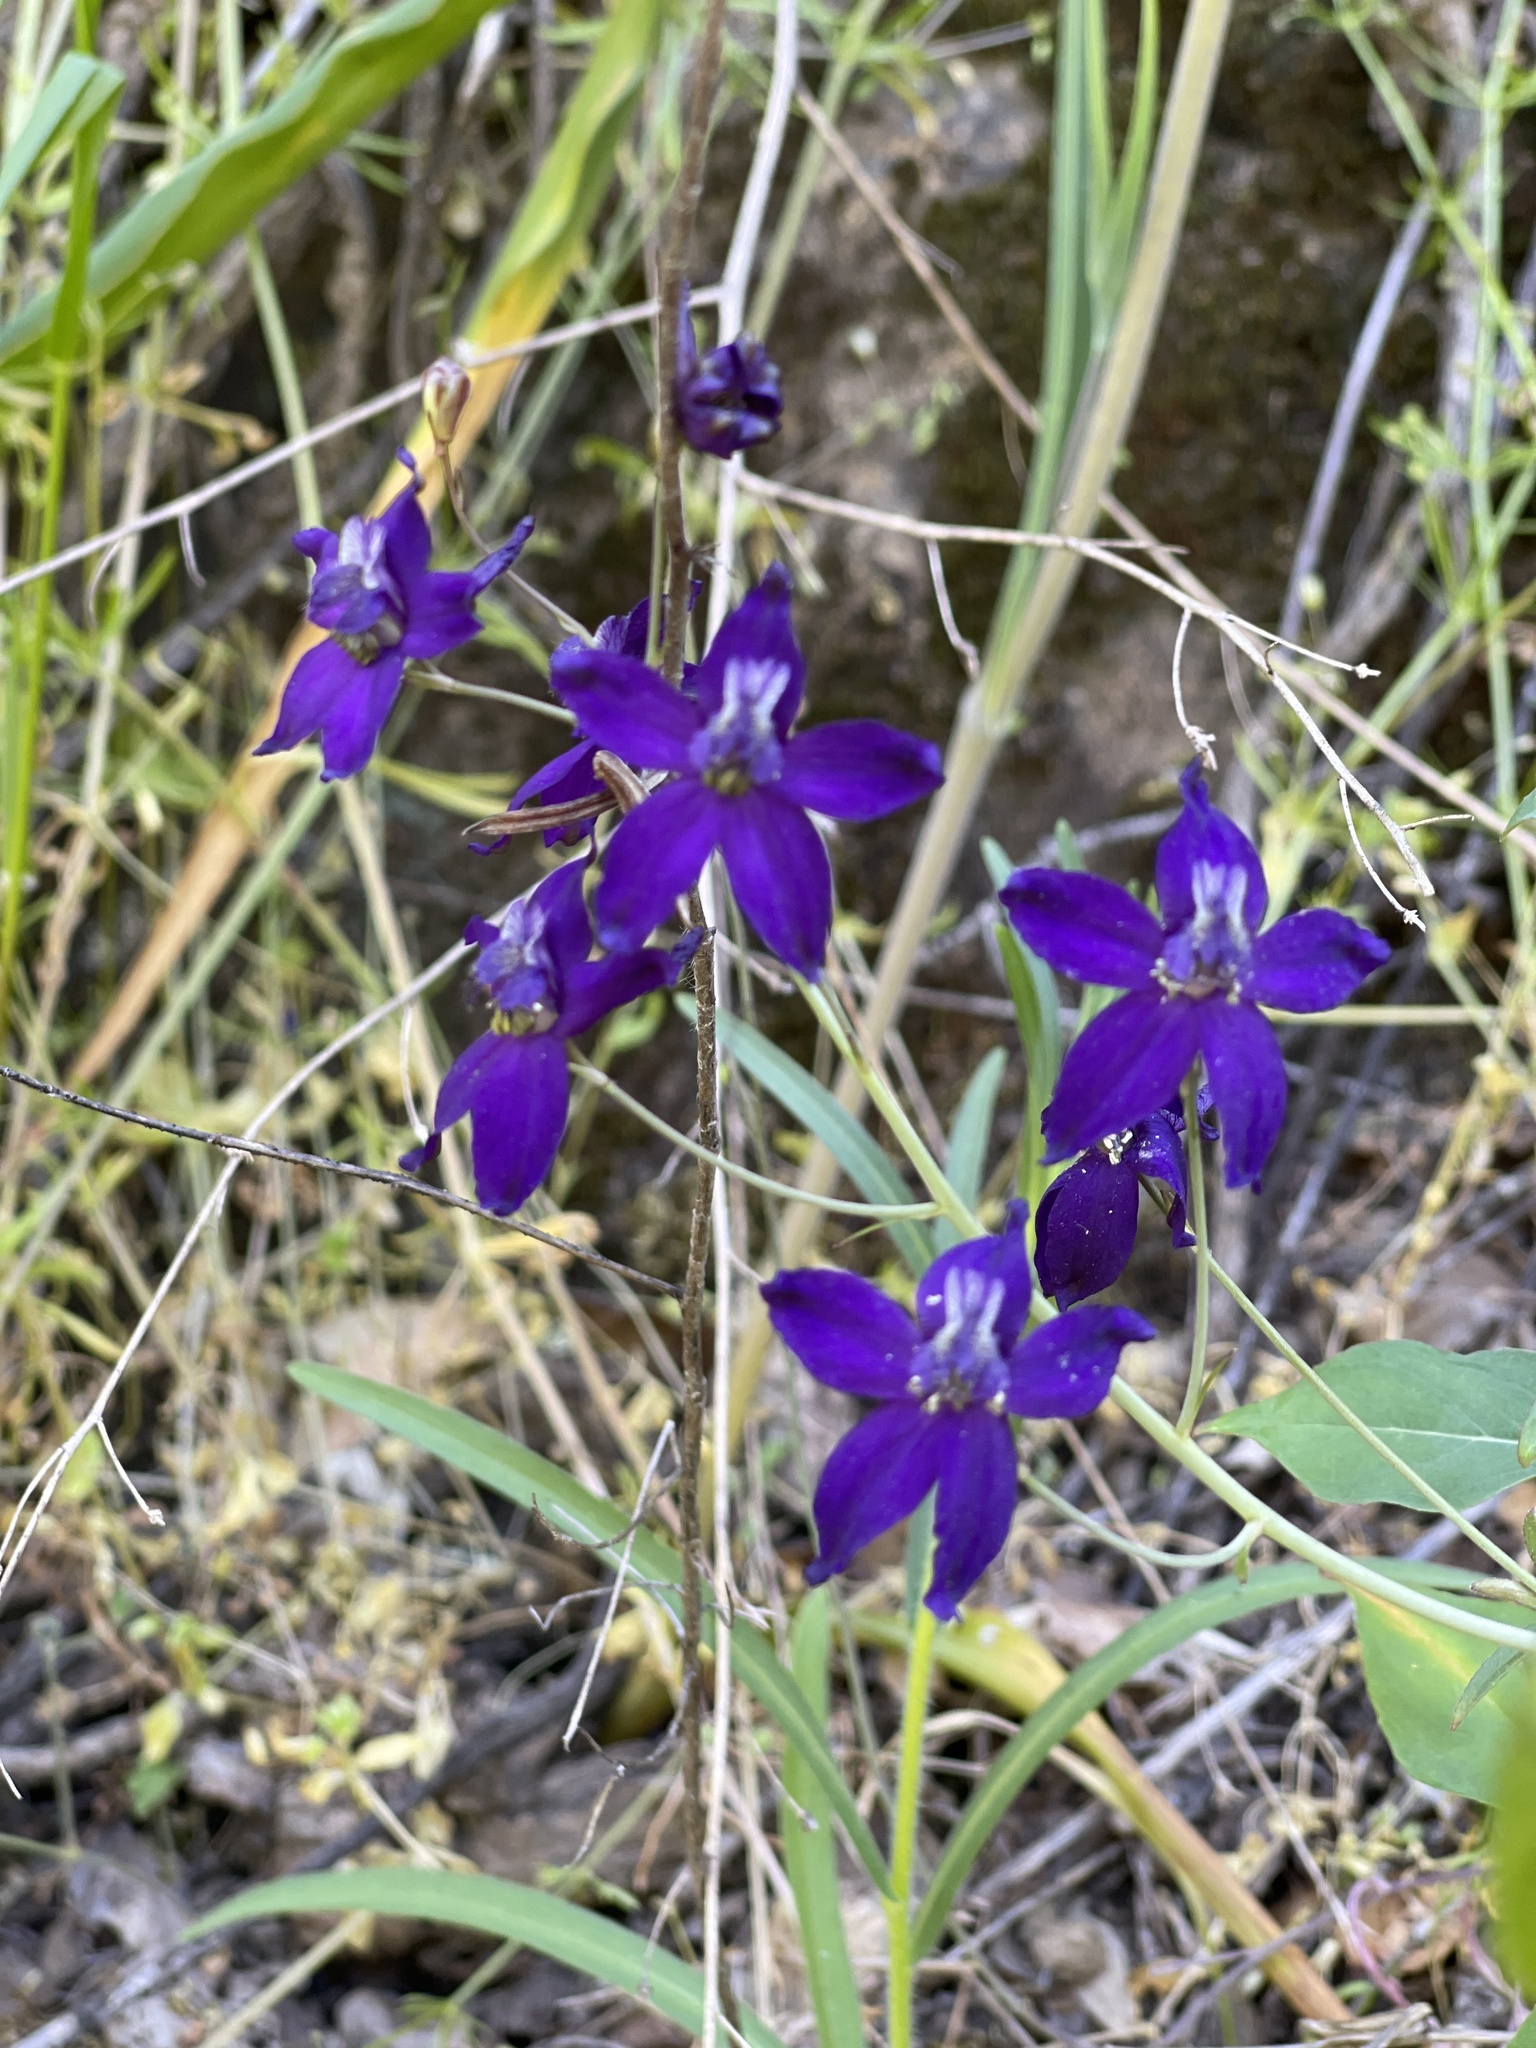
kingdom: Plantae
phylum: Tracheophyta
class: Magnoliopsida
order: Ranunculales
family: Ranunculaceae
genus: Delphinium
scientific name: Delphinium patens
